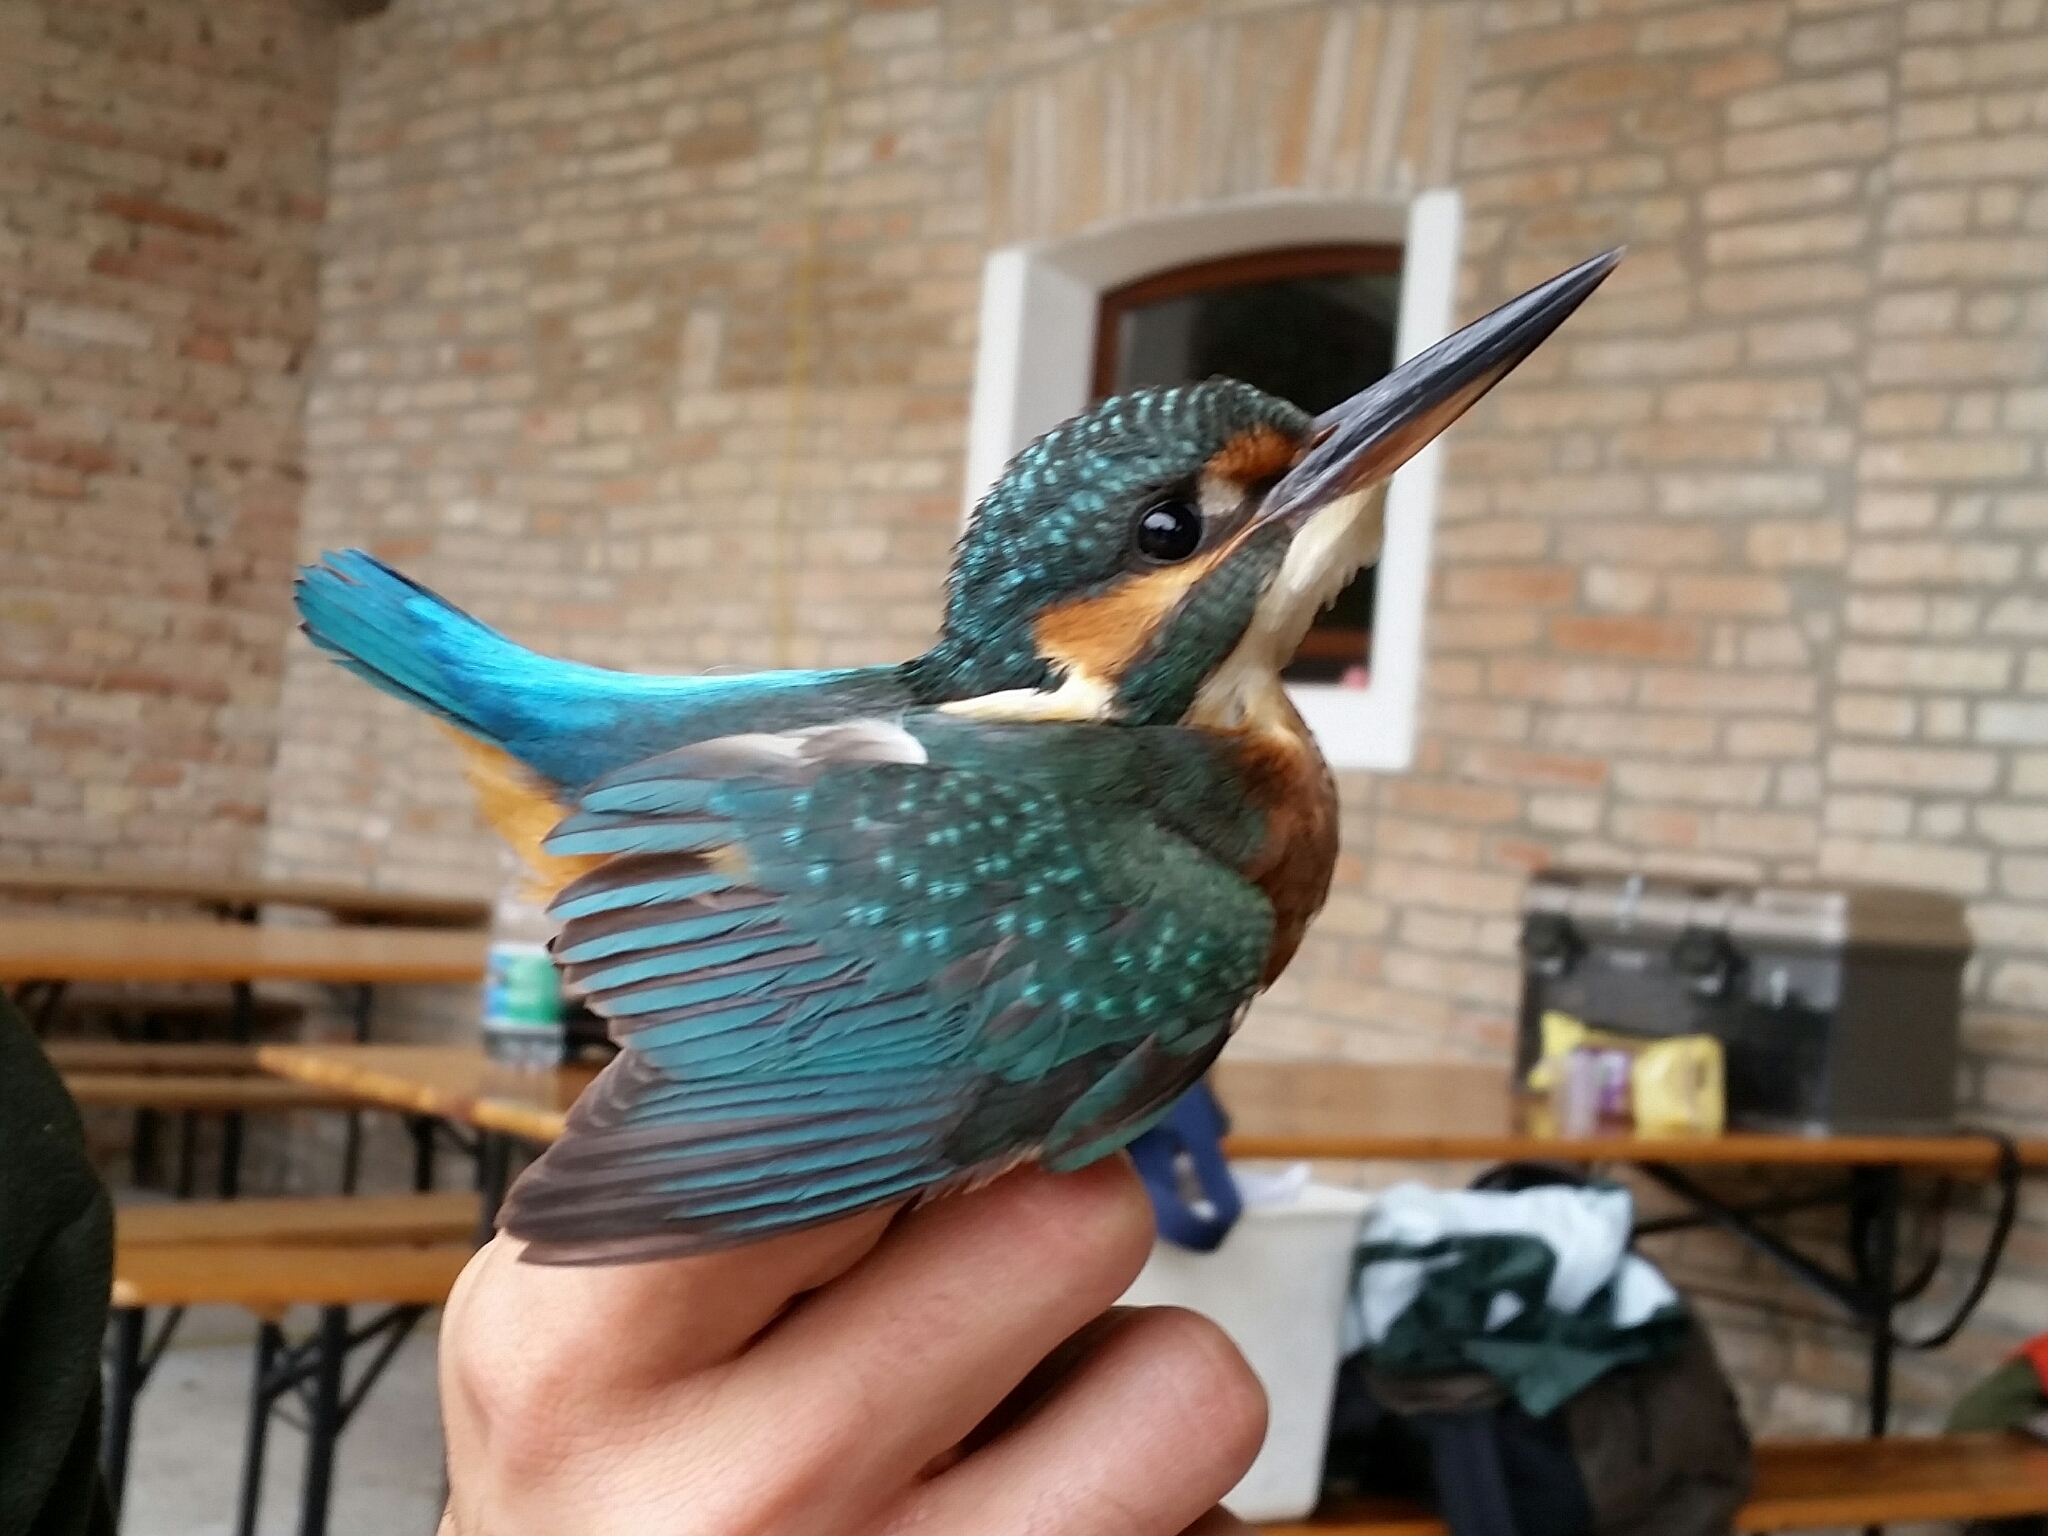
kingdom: Animalia
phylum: Chordata
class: Aves
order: Coraciiformes
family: Alcedinidae
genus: Alcedo
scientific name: Alcedo atthis
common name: Common kingfisher
